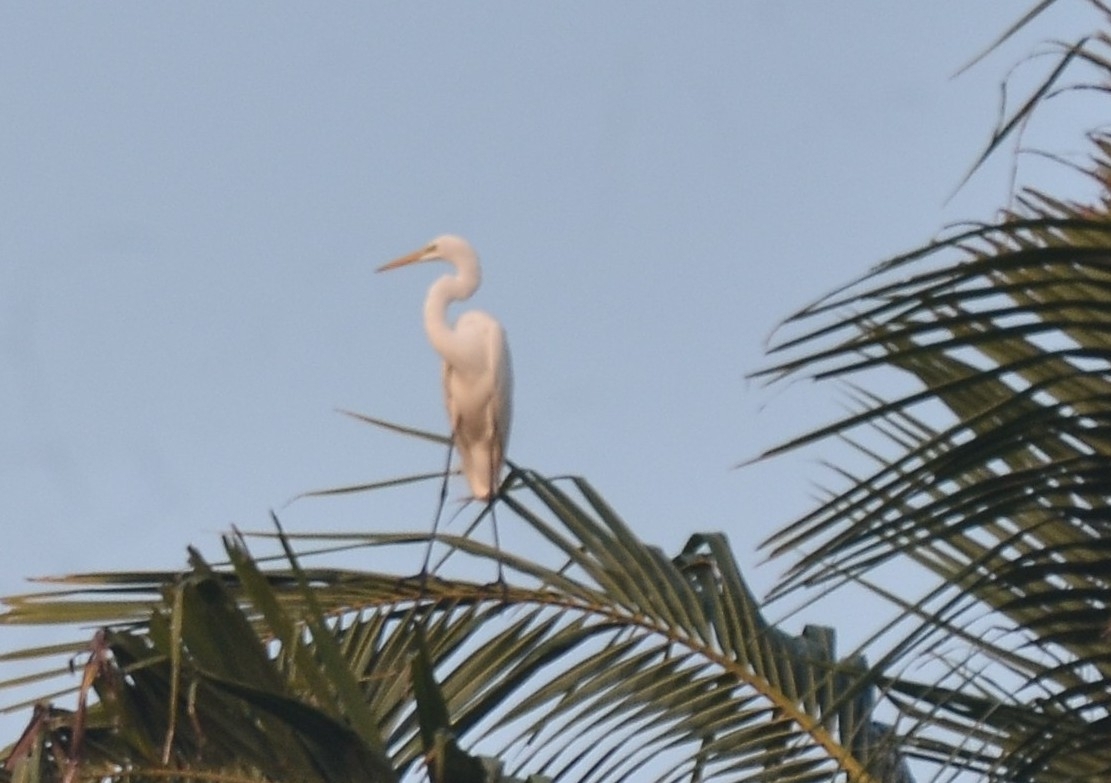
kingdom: Animalia
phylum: Chordata
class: Aves
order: Pelecaniformes
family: Ardeidae
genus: Ardea
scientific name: Ardea alba
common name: Great egret
